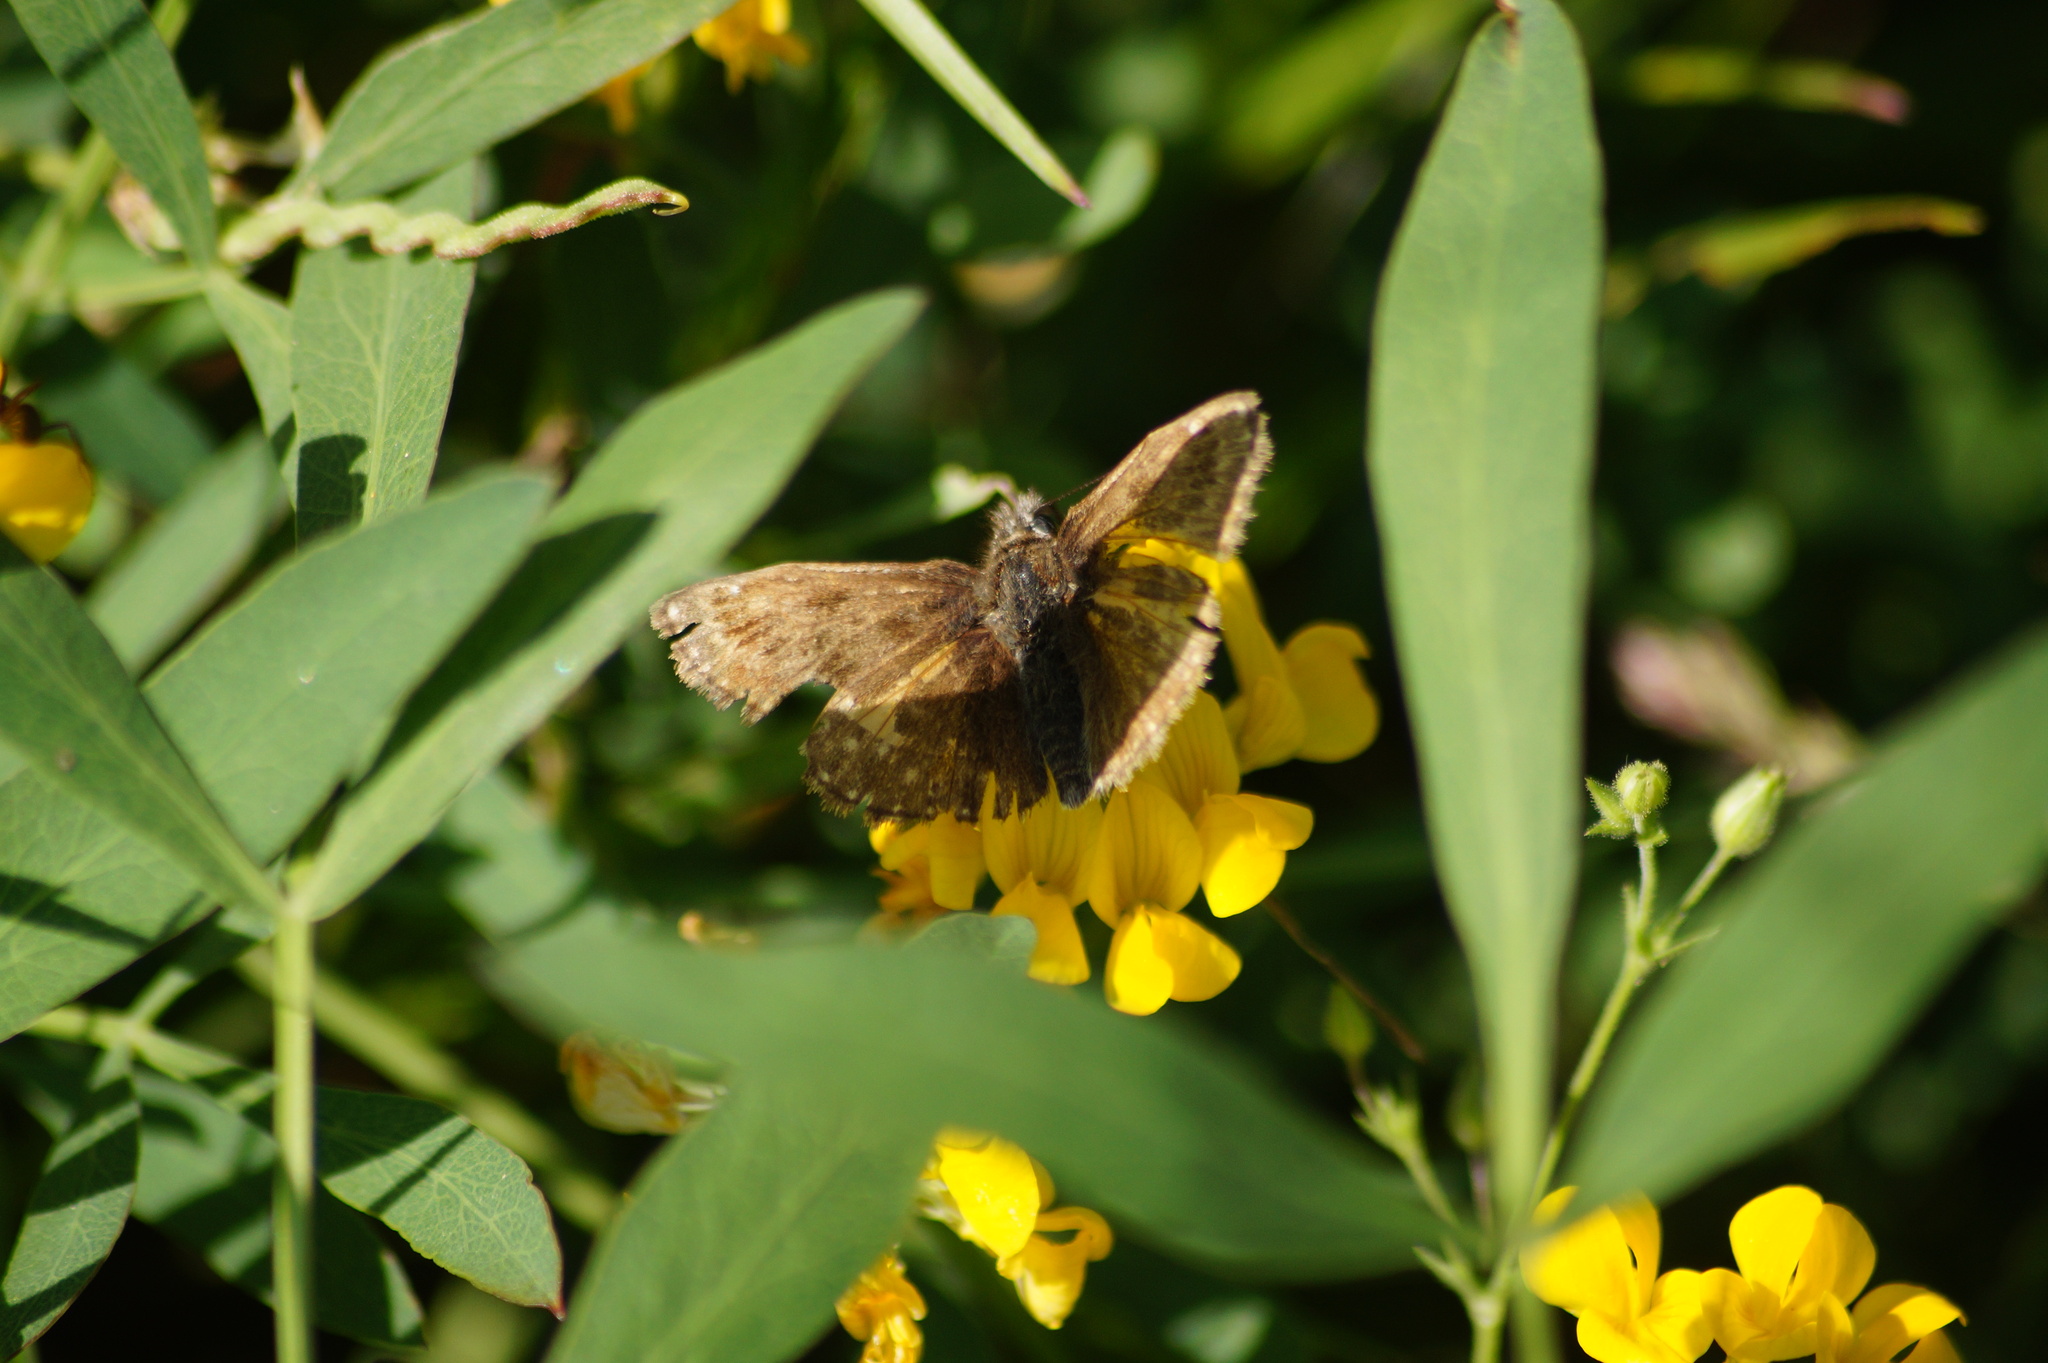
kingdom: Animalia
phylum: Arthropoda
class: Insecta
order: Lepidoptera
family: Hesperiidae
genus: Erynnis
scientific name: Erynnis tages
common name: Dingy skipper
